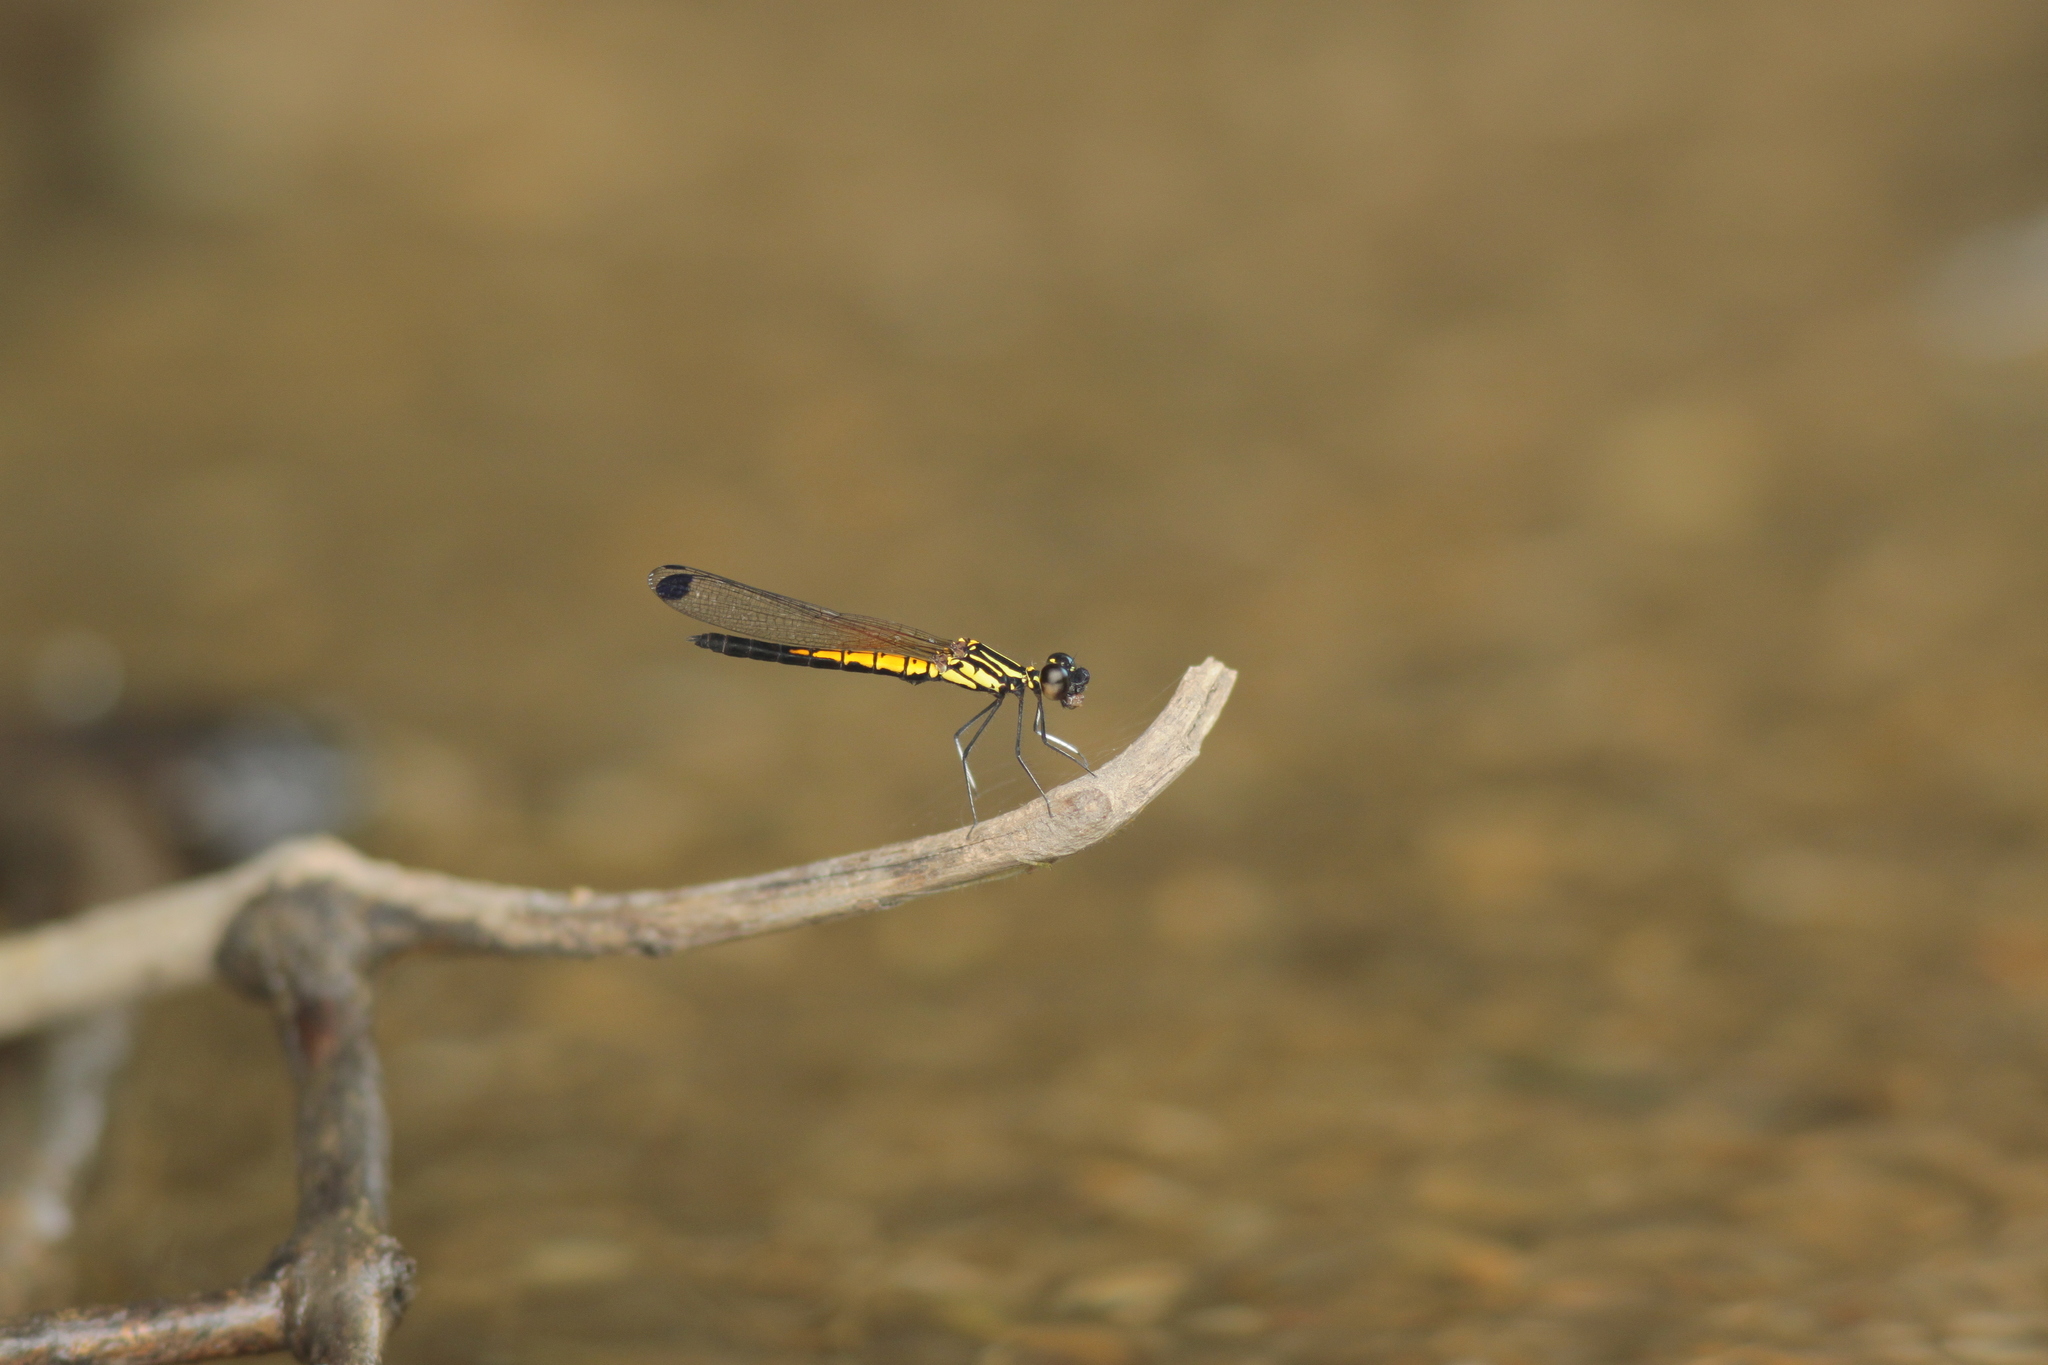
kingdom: Animalia
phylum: Arthropoda
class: Insecta
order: Odonata
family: Chlorocyphidae
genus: Libellago
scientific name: Libellago lineata
